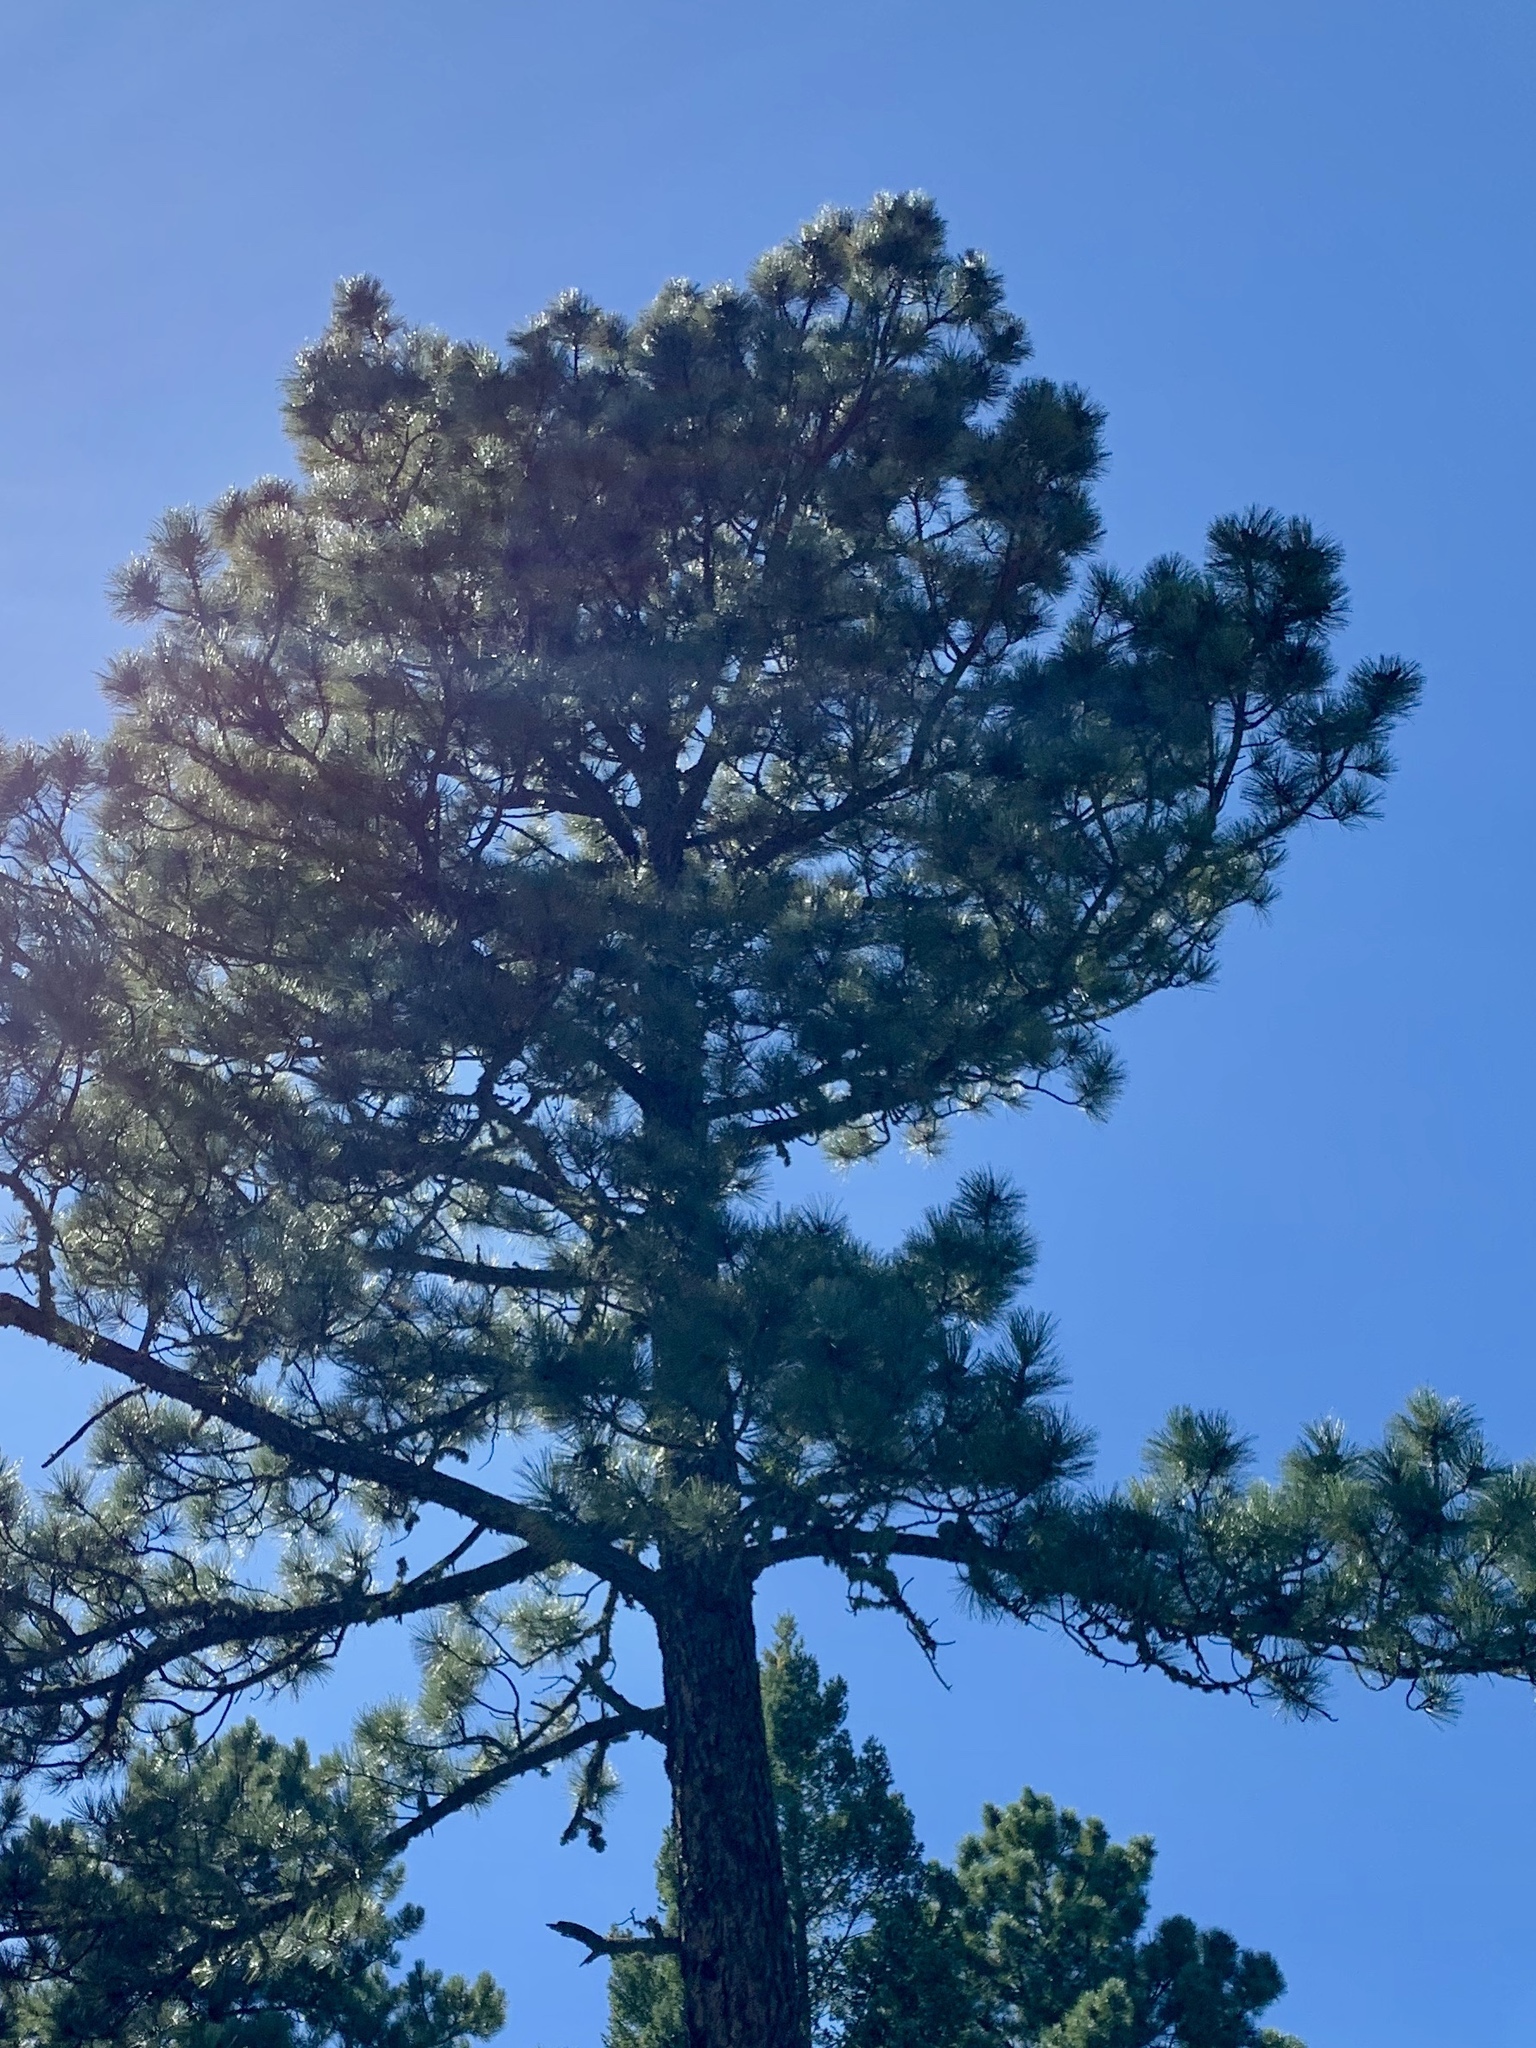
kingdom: Plantae
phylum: Tracheophyta
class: Pinopsida
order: Pinales
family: Pinaceae
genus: Pinus
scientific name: Pinus ponderosa
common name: Western yellow-pine
